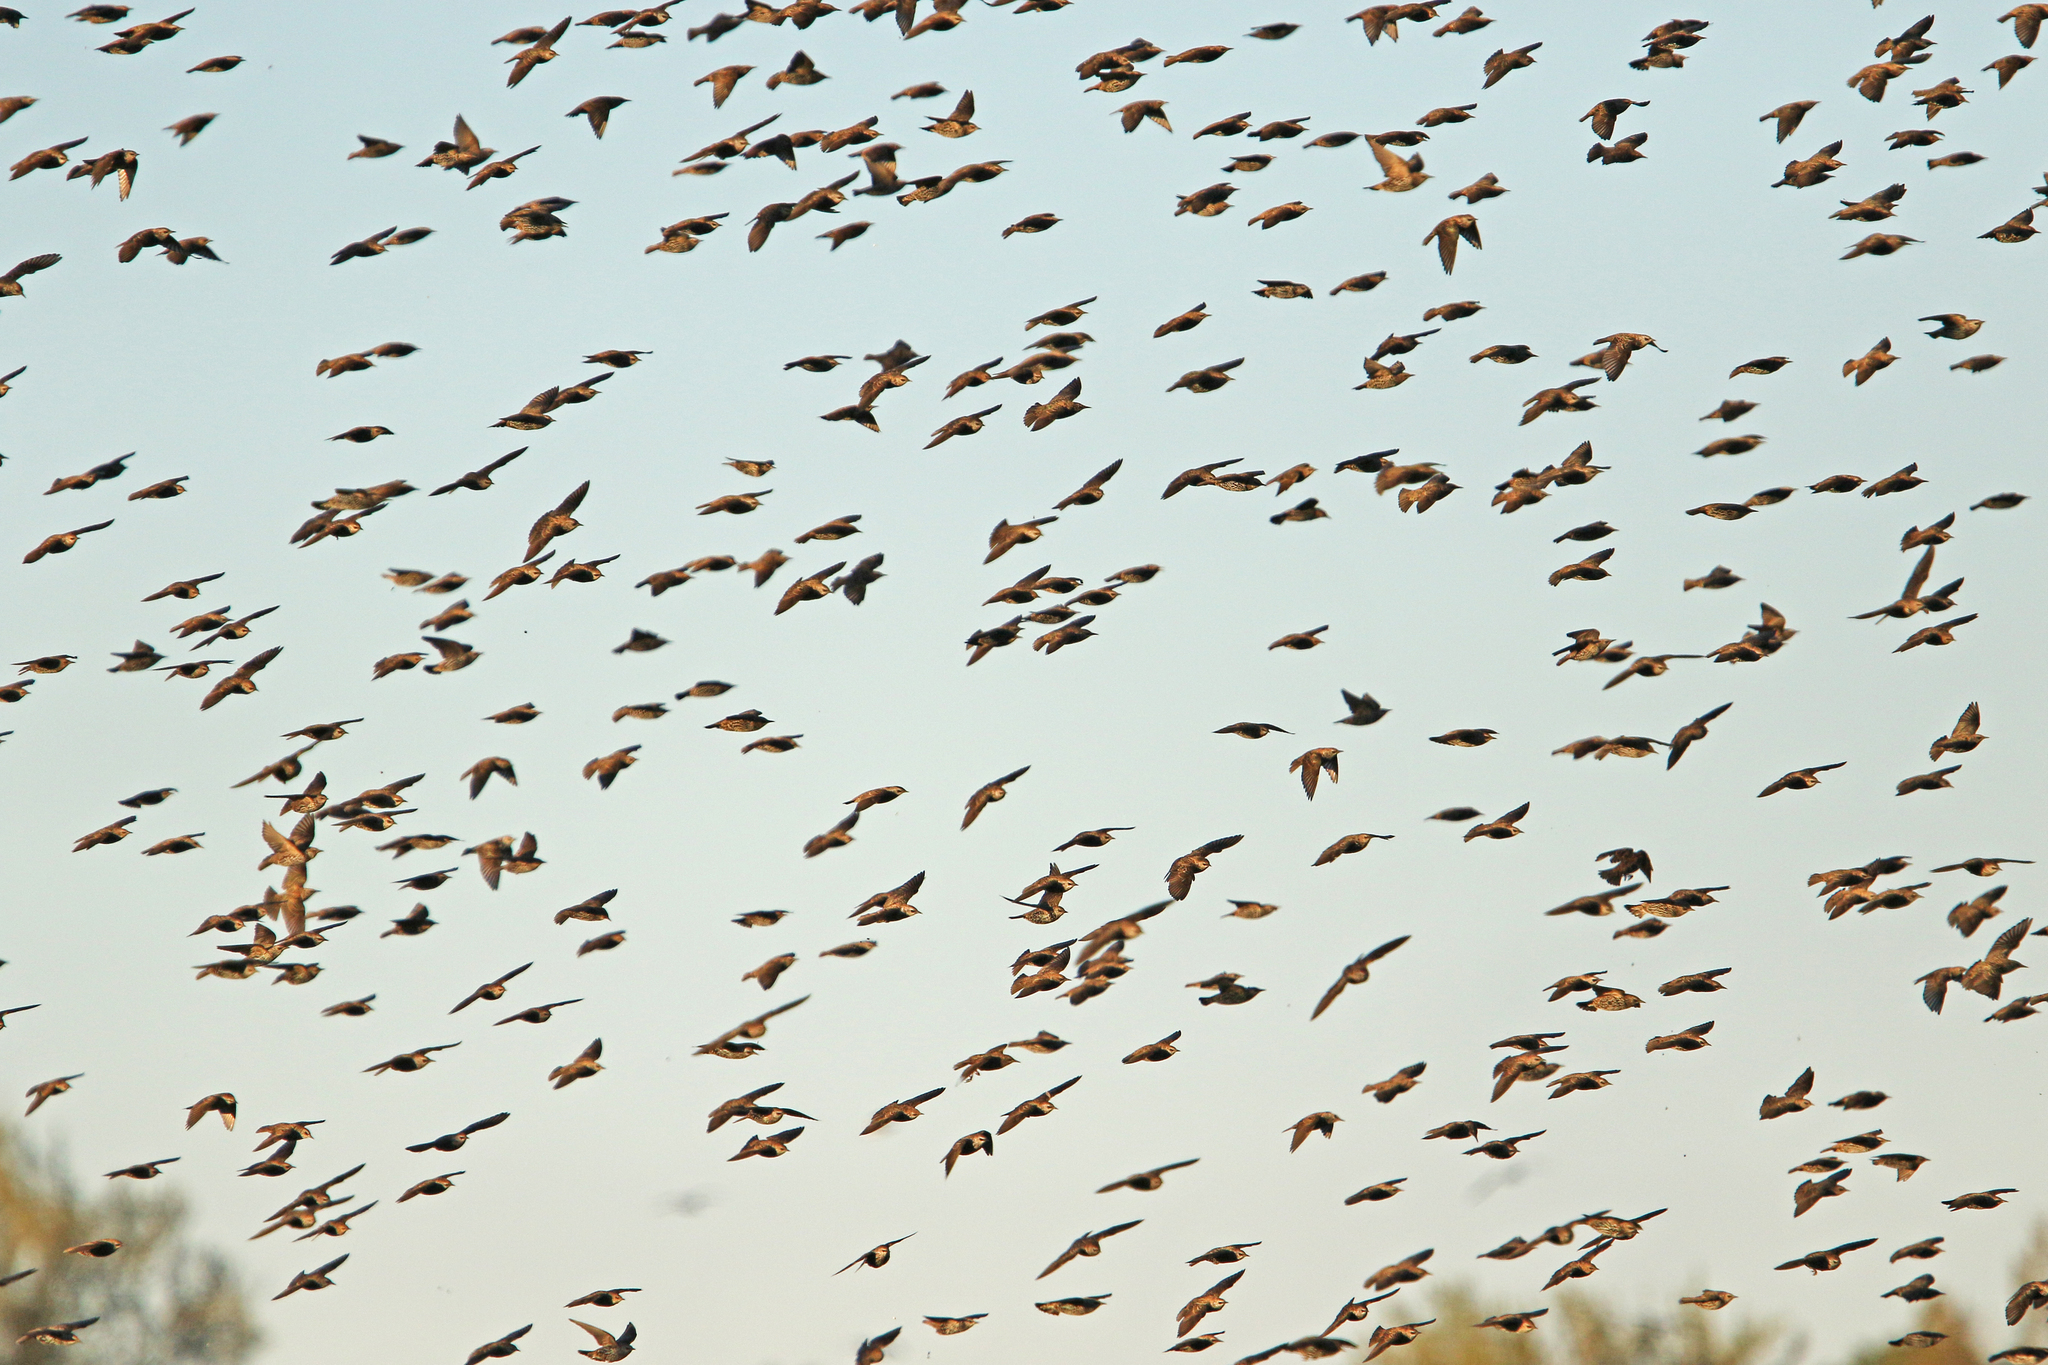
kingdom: Animalia
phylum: Chordata
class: Aves
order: Passeriformes
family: Sturnidae
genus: Sturnus
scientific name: Sturnus vulgaris
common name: Common starling
